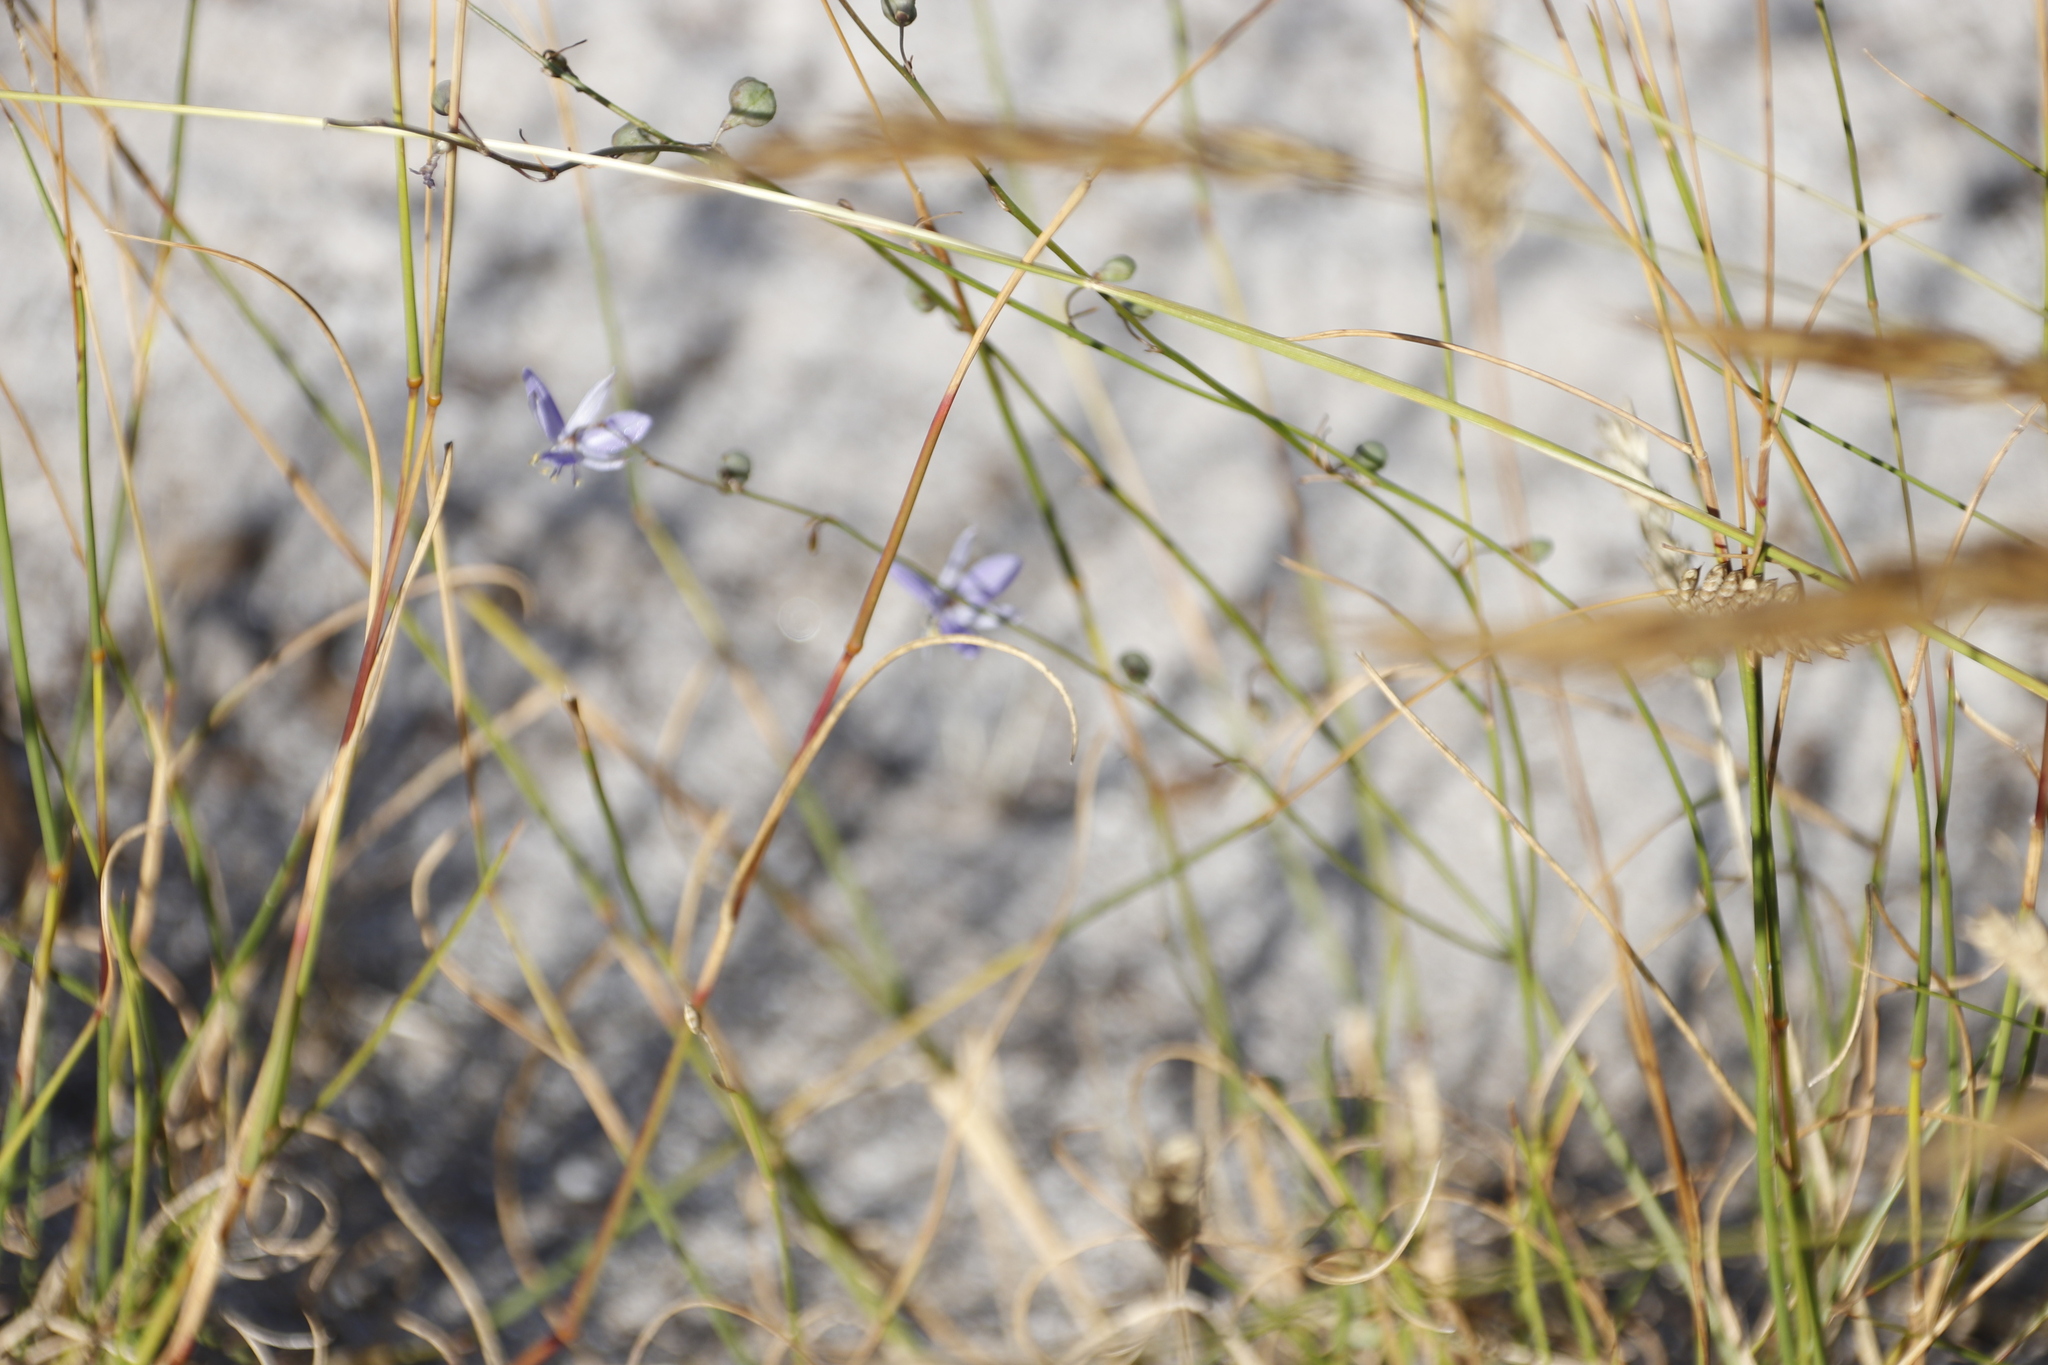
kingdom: Plantae
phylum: Tracheophyta
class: Liliopsida
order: Asparagales
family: Asphodelaceae
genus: Caesia
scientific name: Caesia contorta
